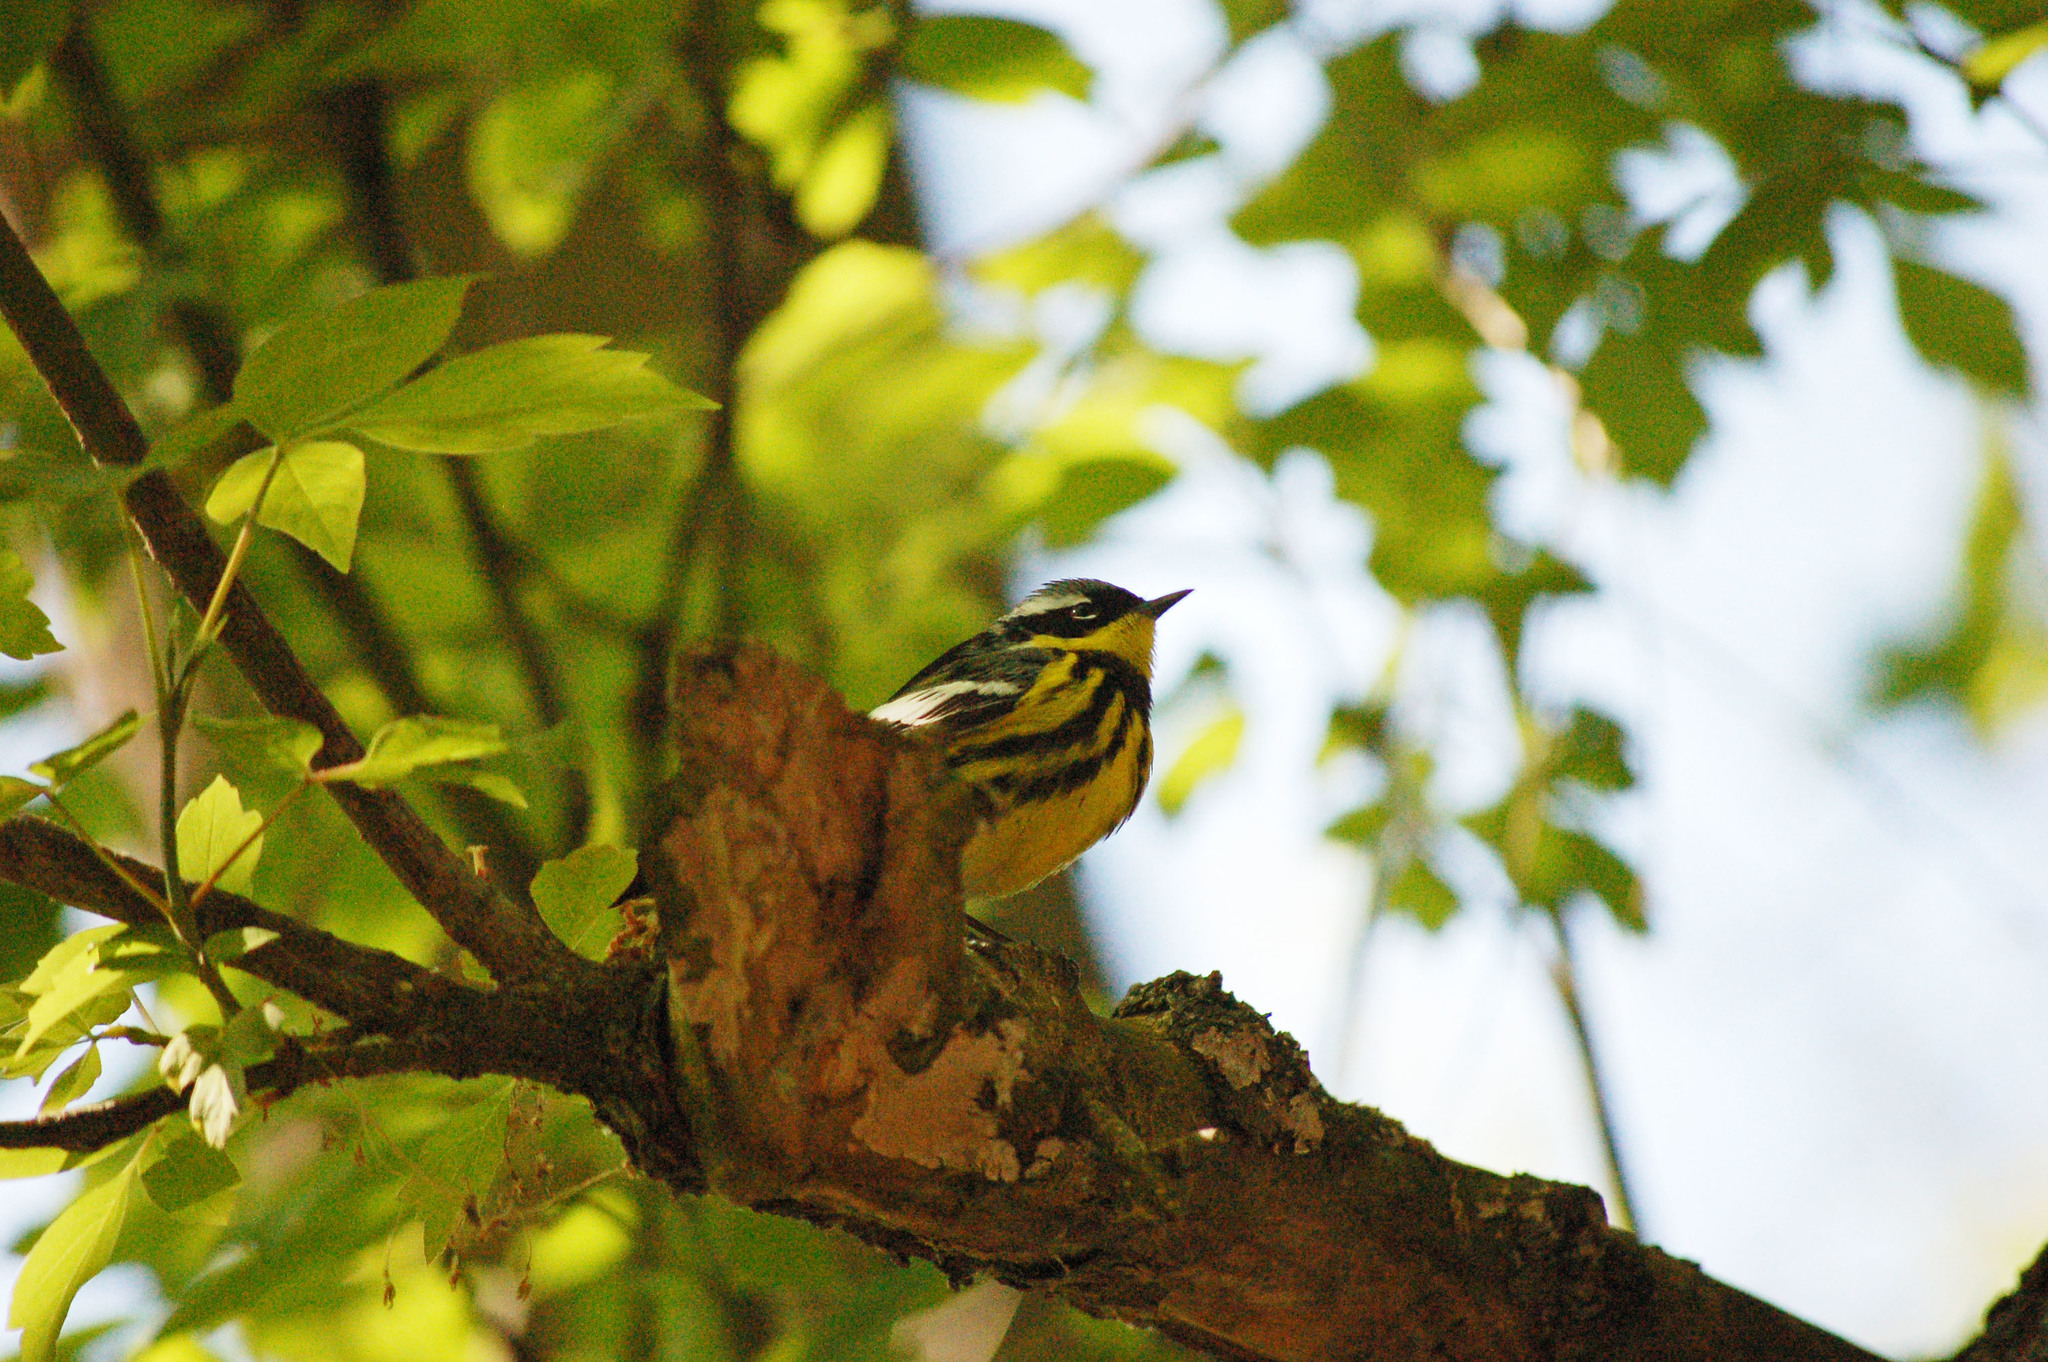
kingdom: Animalia
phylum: Chordata
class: Aves
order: Passeriformes
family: Parulidae
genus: Setophaga
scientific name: Setophaga magnolia
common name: Magnolia warbler
